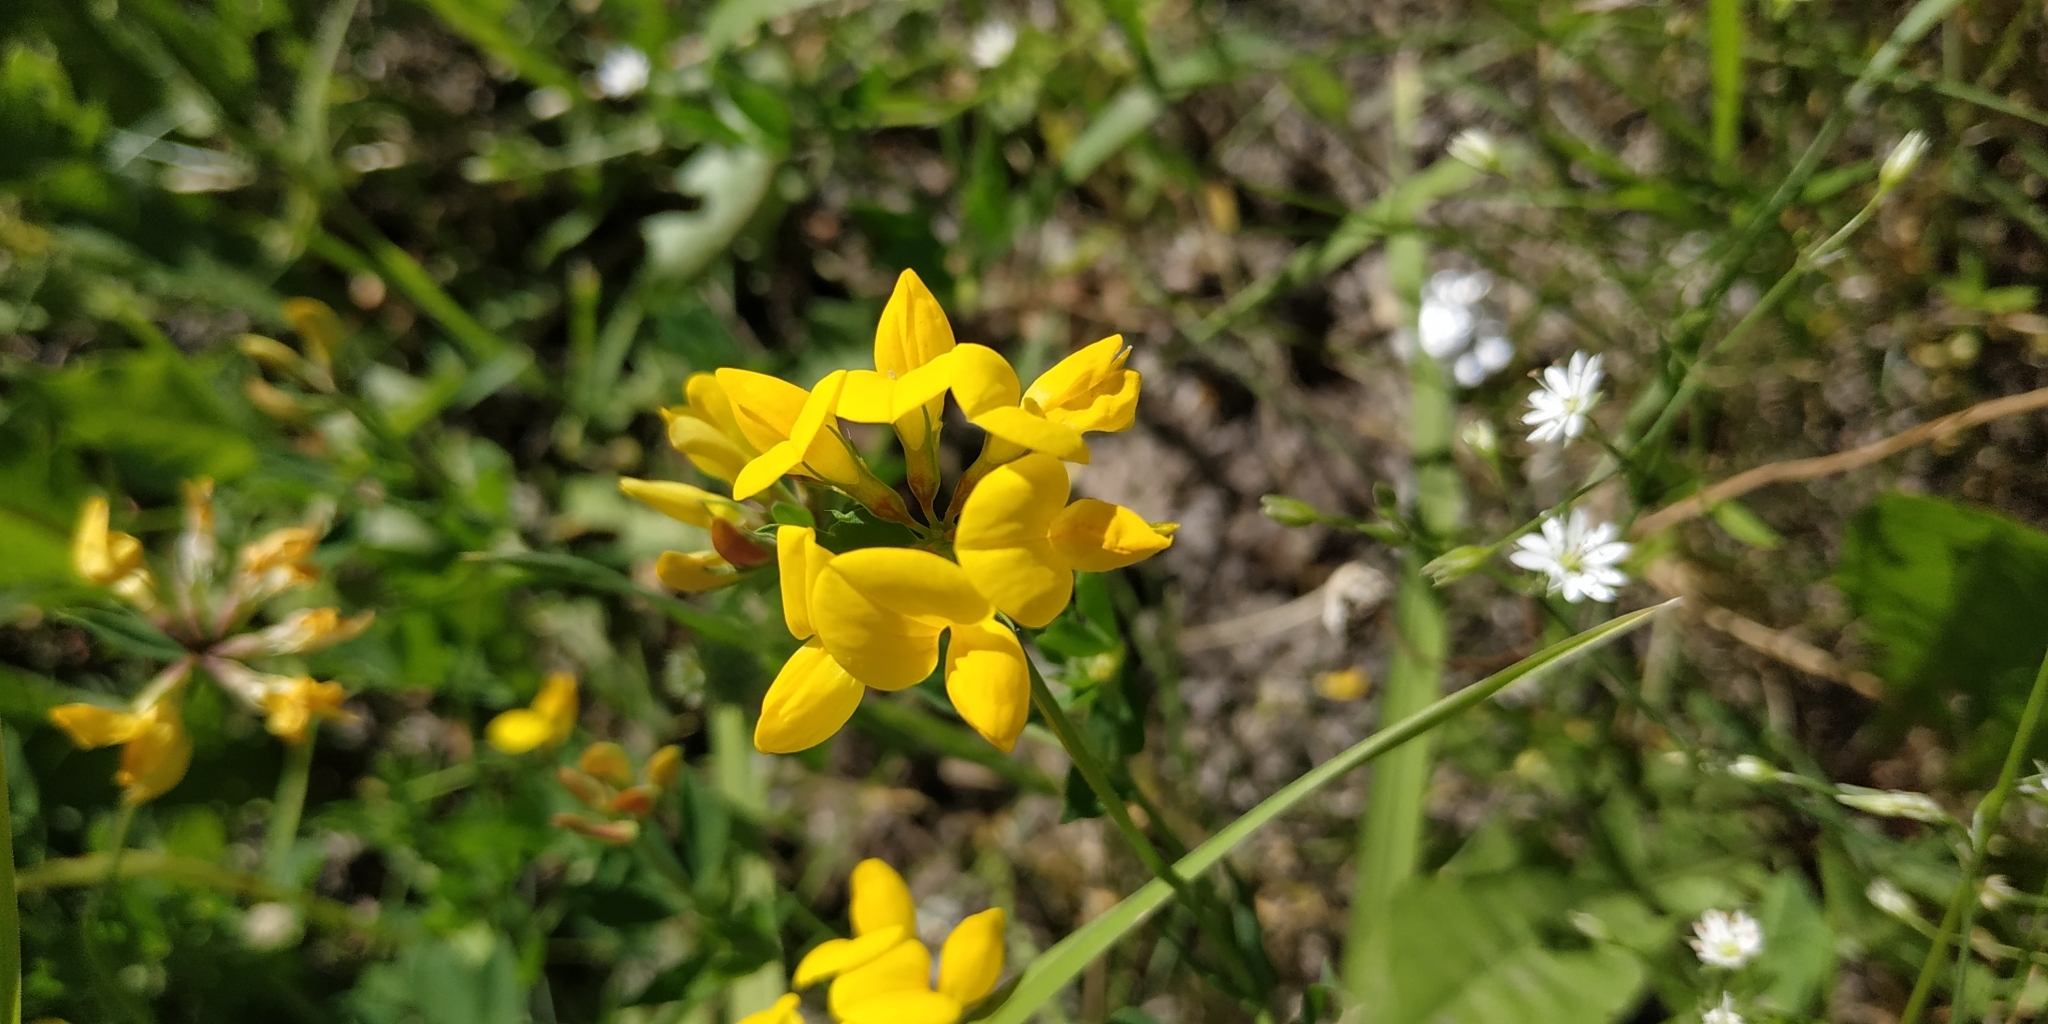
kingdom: Plantae
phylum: Tracheophyta
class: Magnoliopsida
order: Fabales
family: Fabaceae
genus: Lotus
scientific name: Lotus ucrainicus
